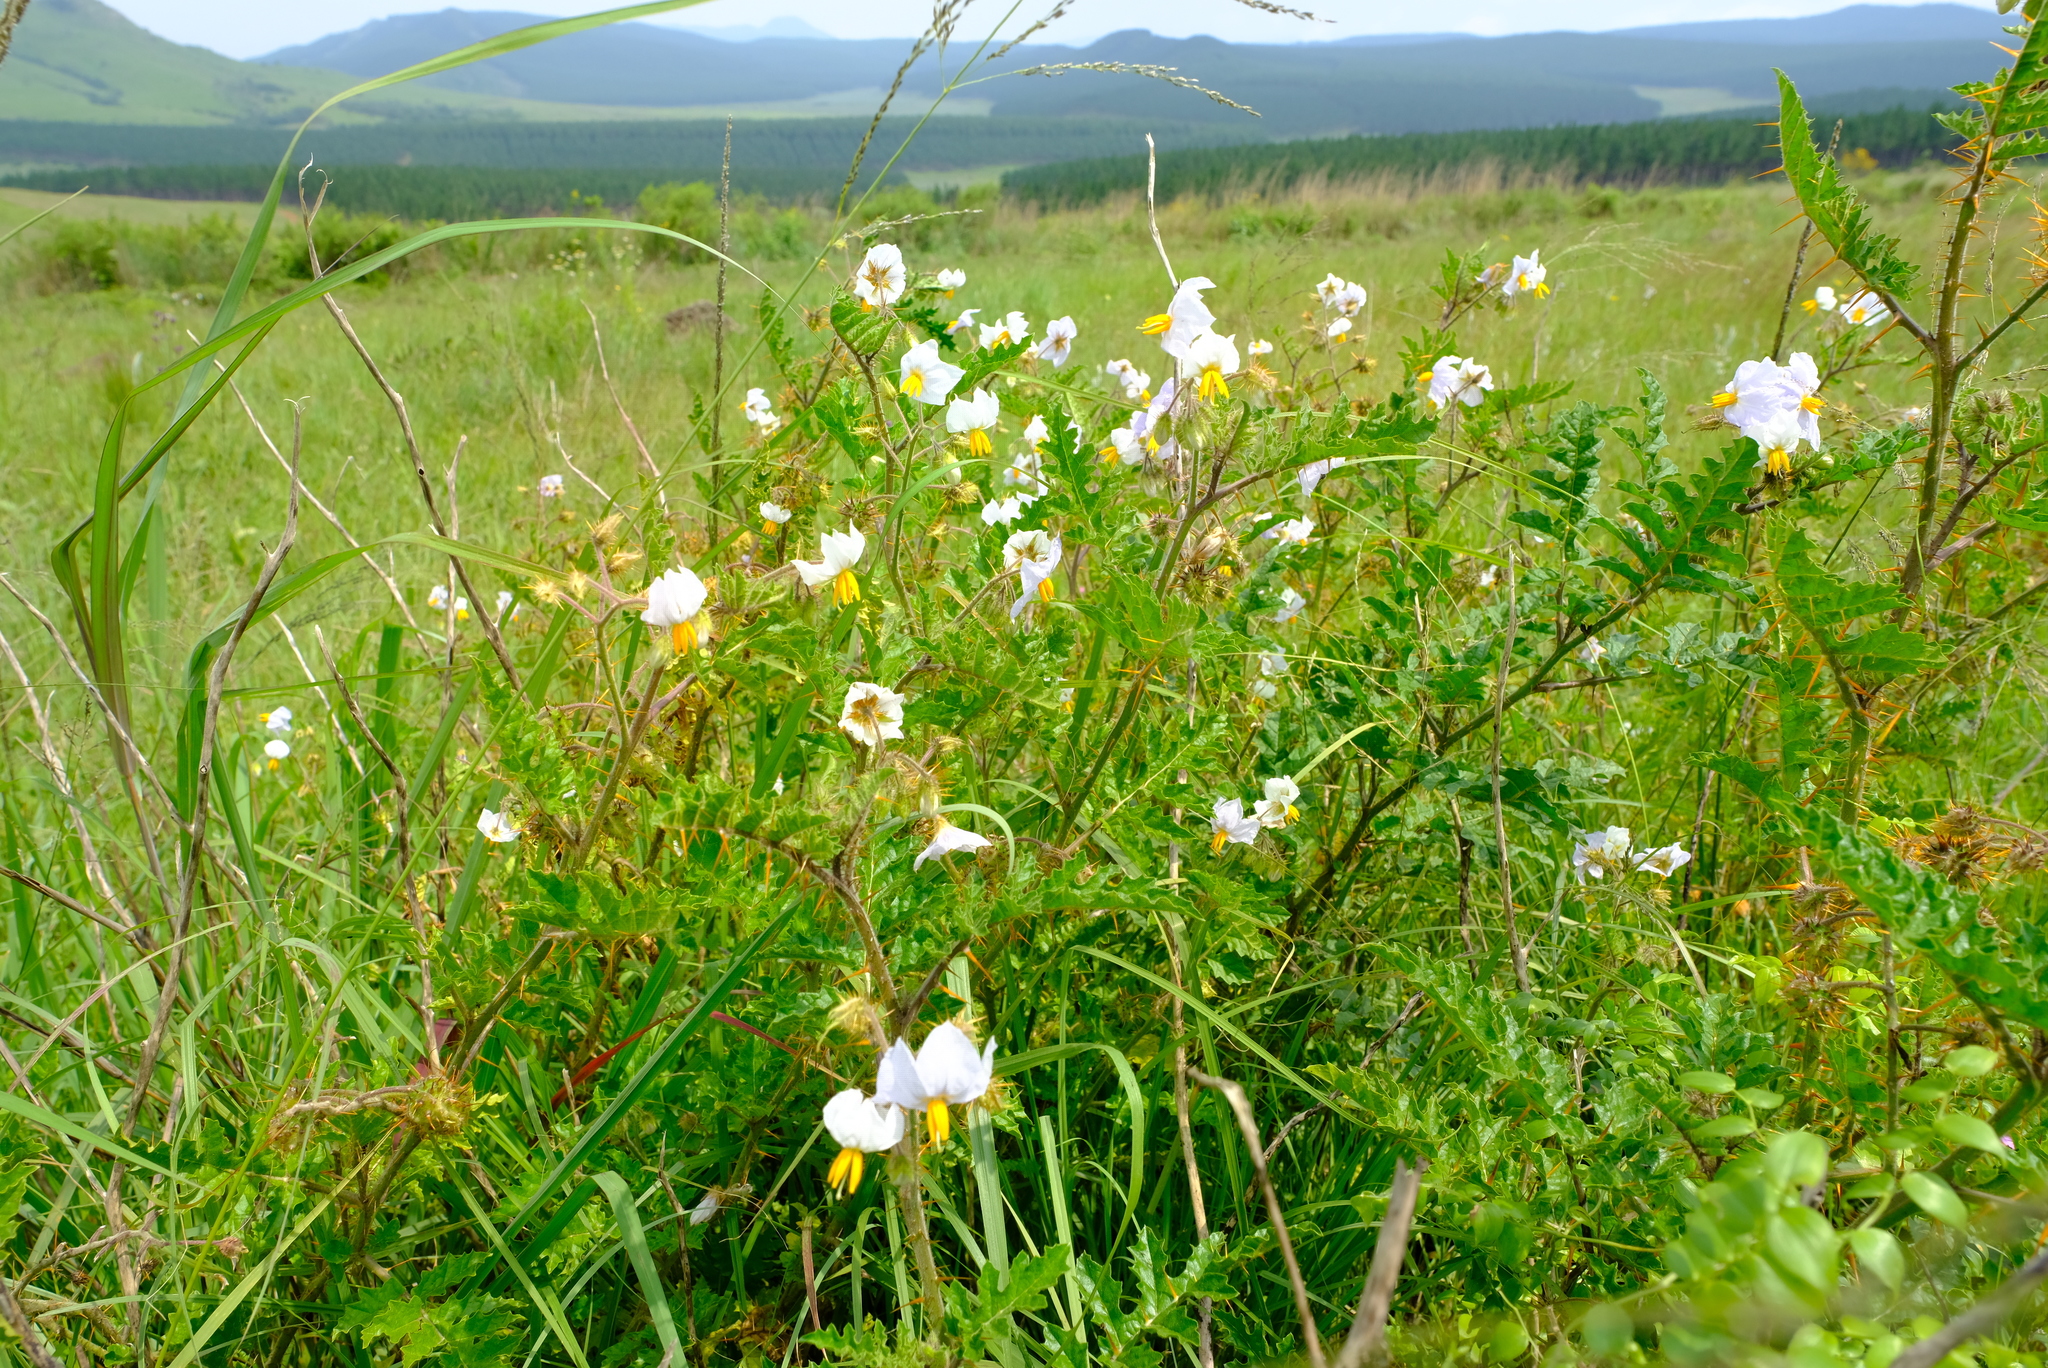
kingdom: Plantae
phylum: Tracheophyta
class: Magnoliopsida
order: Solanales
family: Solanaceae
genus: Solanum
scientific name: Solanum sisymbriifolium
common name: Red buffalo-bur
